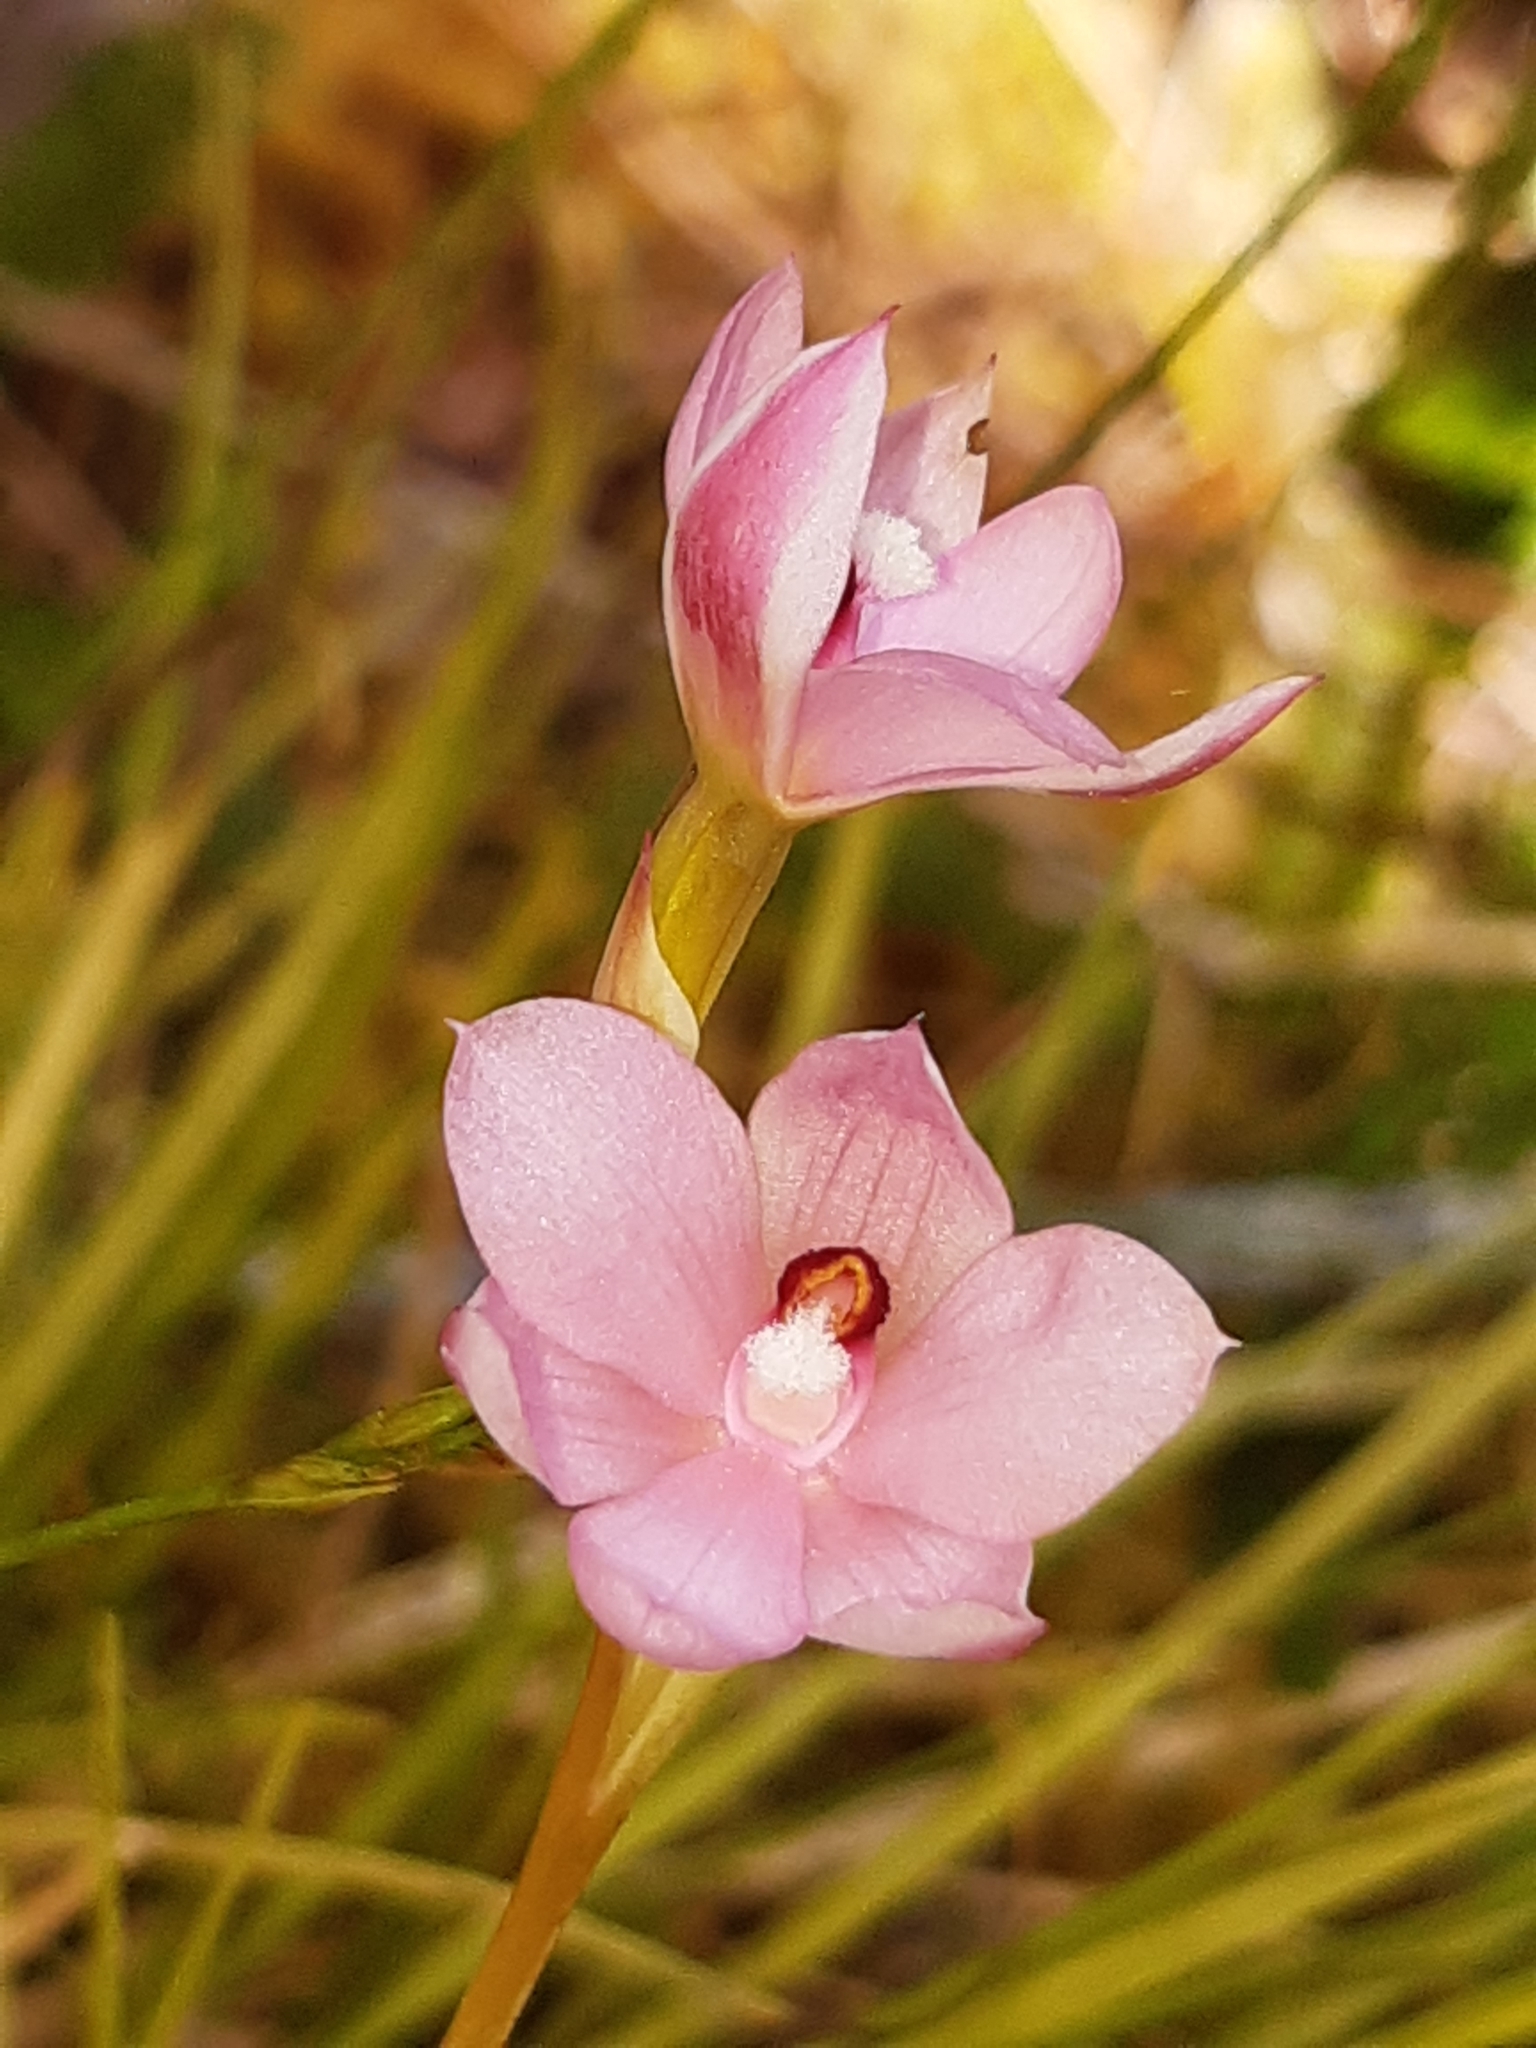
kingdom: Plantae
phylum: Tracheophyta
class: Liliopsida
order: Asparagales
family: Orchidaceae
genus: Thelymitra
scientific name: Thelymitra nervosa
